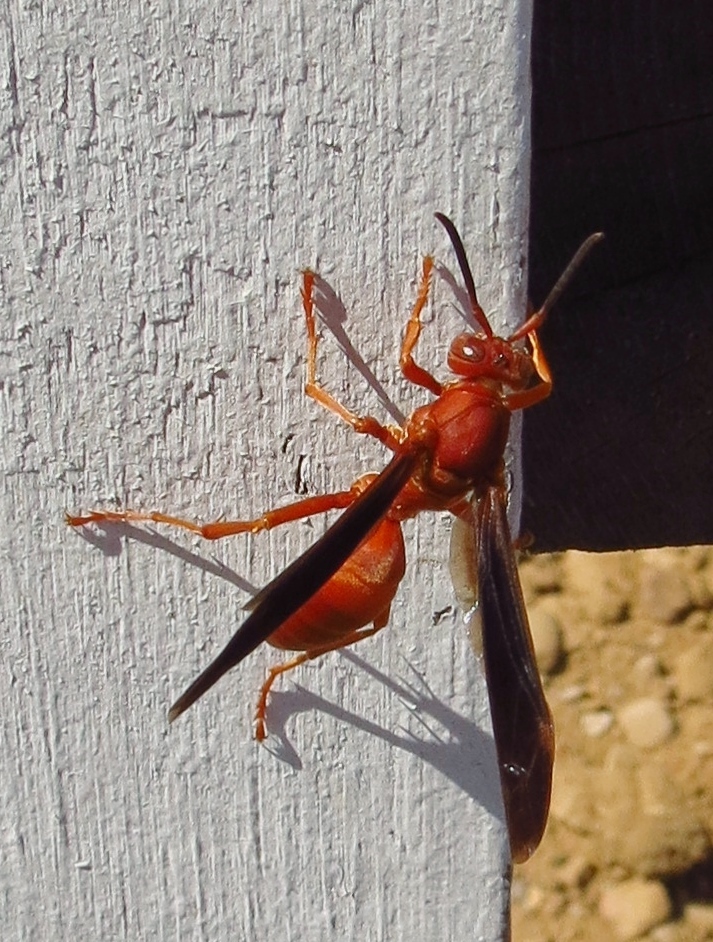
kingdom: Animalia
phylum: Arthropoda
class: Insecta
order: Hymenoptera
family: Eumenidae
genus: Polistes
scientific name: Polistes
